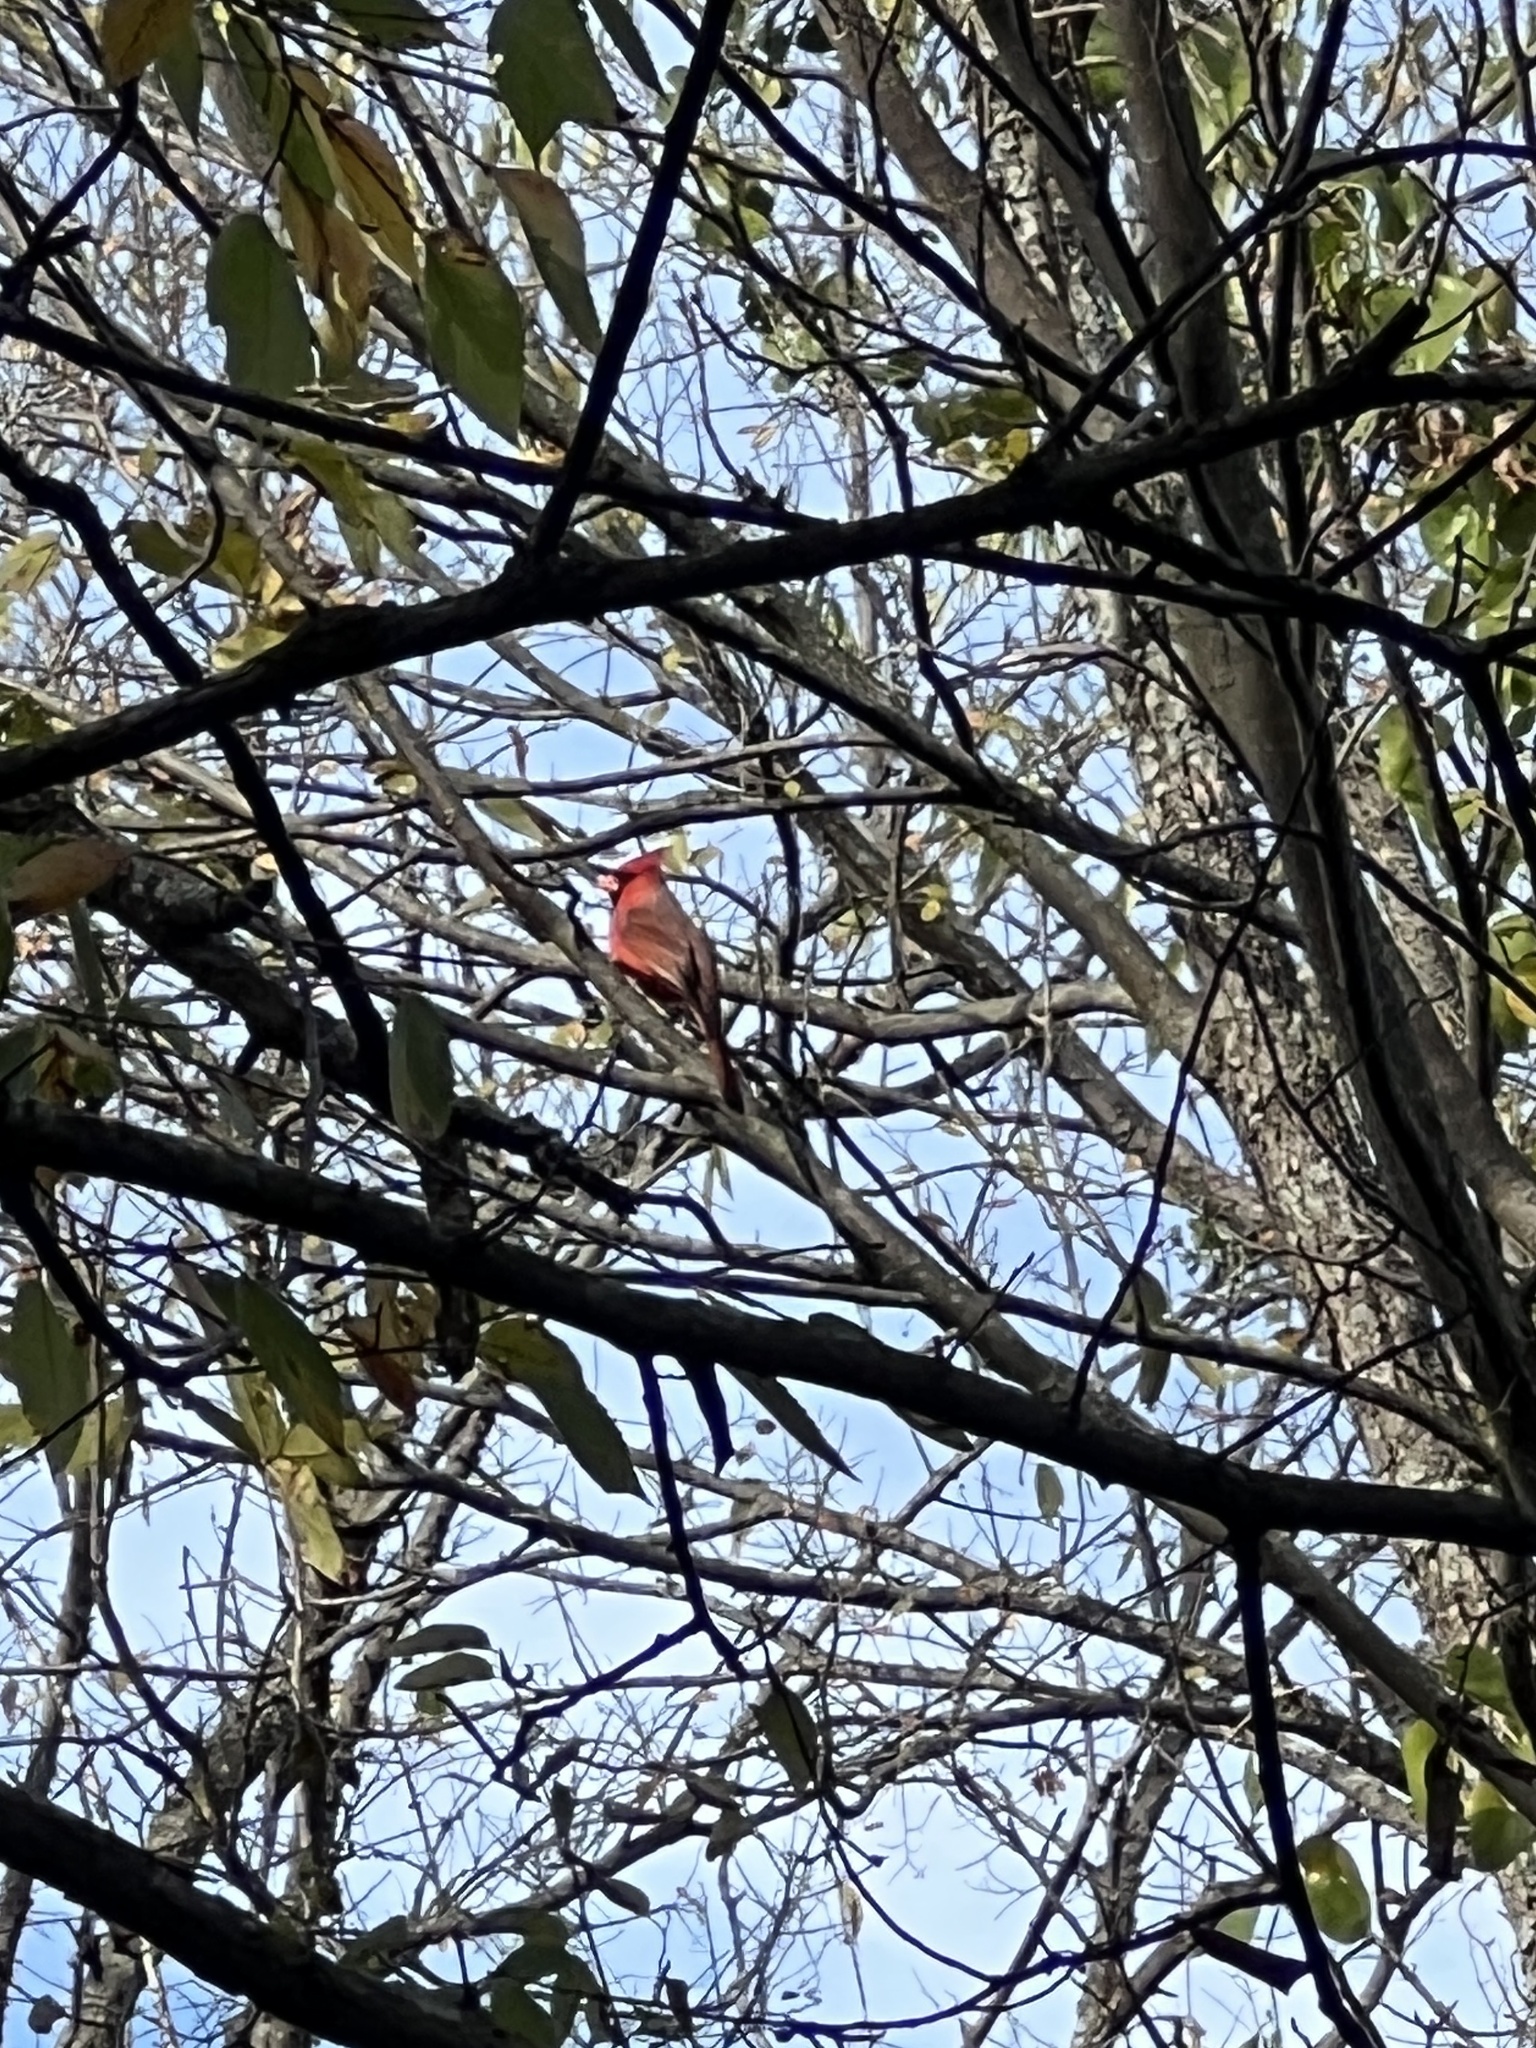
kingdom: Animalia
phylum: Chordata
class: Aves
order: Passeriformes
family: Cardinalidae
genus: Cardinalis
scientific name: Cardinalis cardinalis
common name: Northern cardinal
